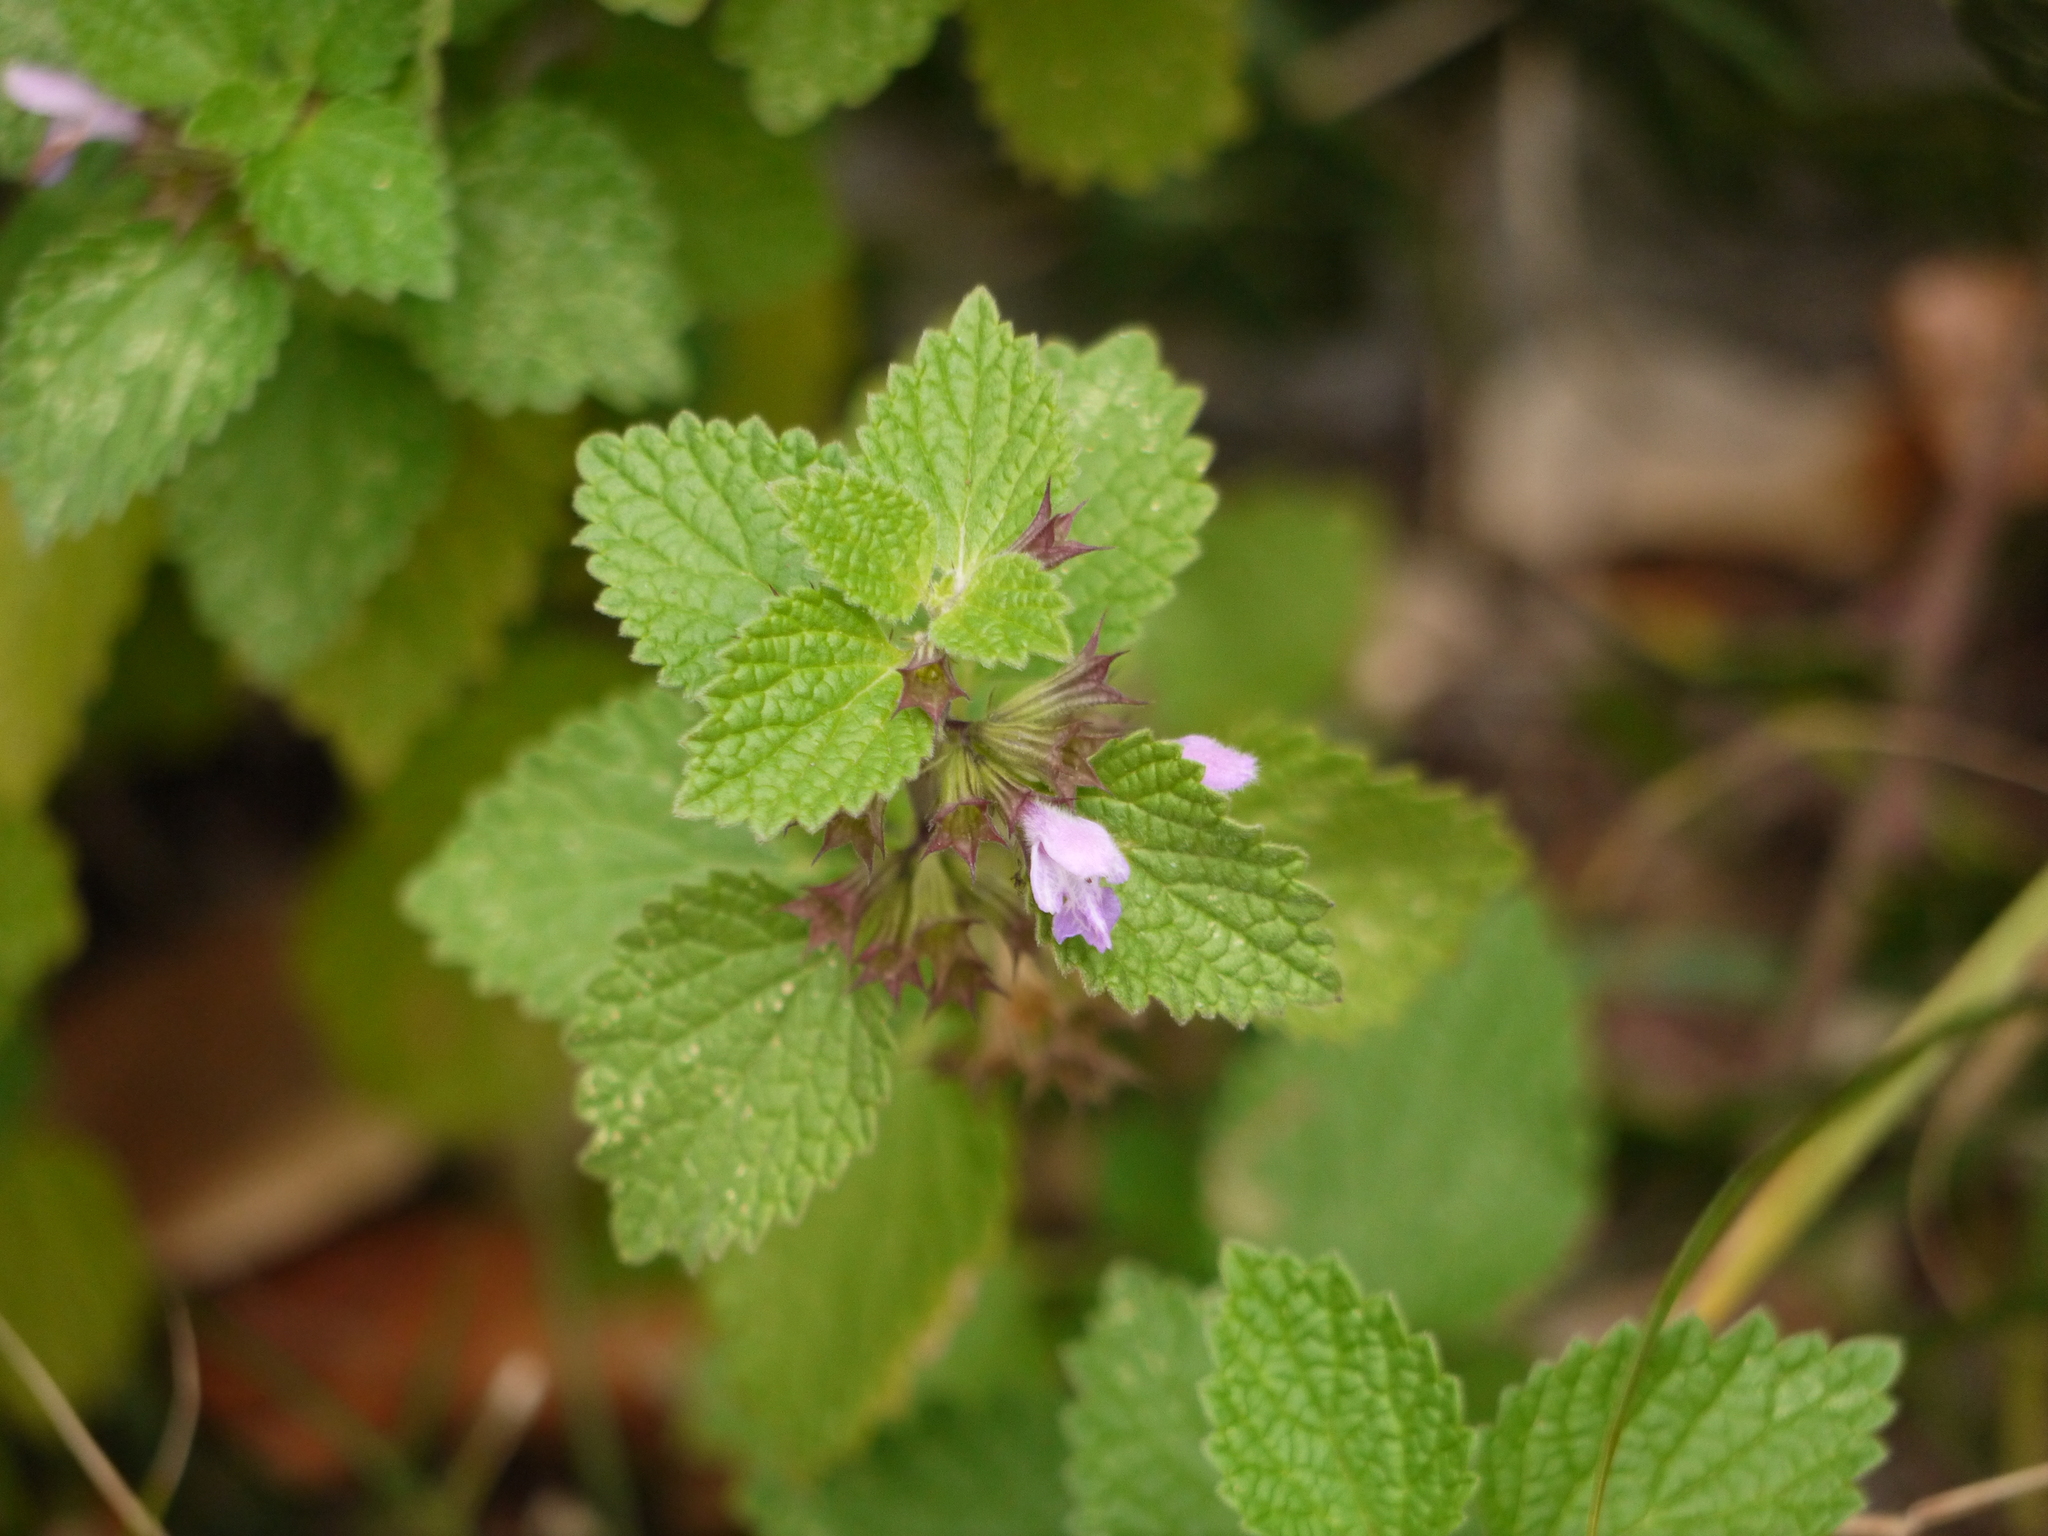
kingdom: Plantae
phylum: Tracheophyta
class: Magnoliopsida
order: Lamiales
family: Lamiaceae
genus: Ballota
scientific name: Ballota nigra
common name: Black horehound
